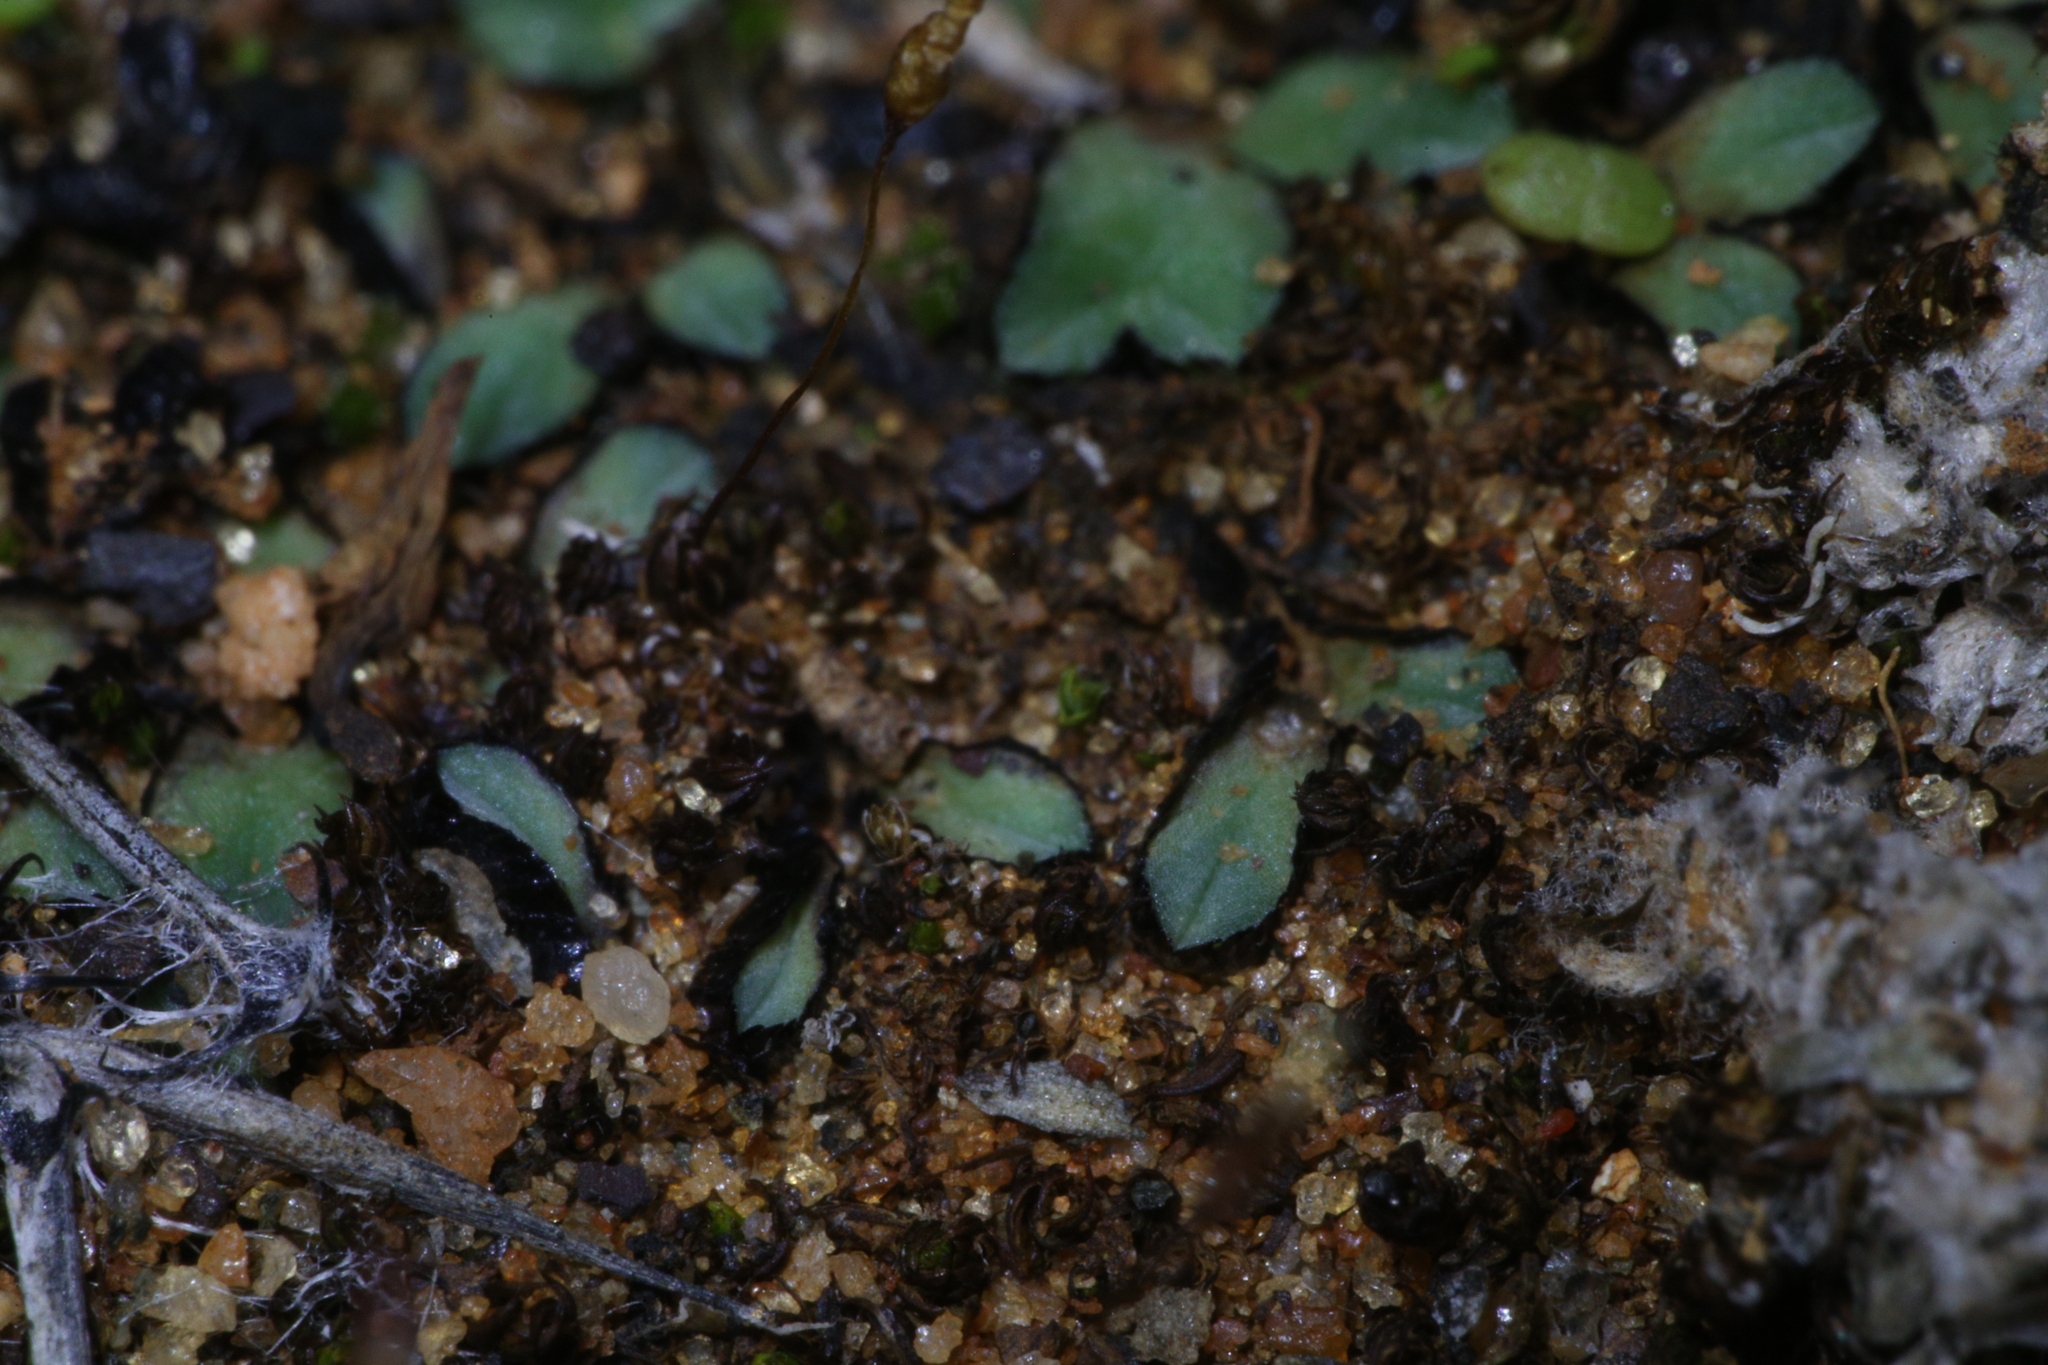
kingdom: Plantae
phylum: Marchantiophyta
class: Marchantiopsida
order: Marchantiales
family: Ricciaceae
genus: Riccia
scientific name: Riccia inflexa
